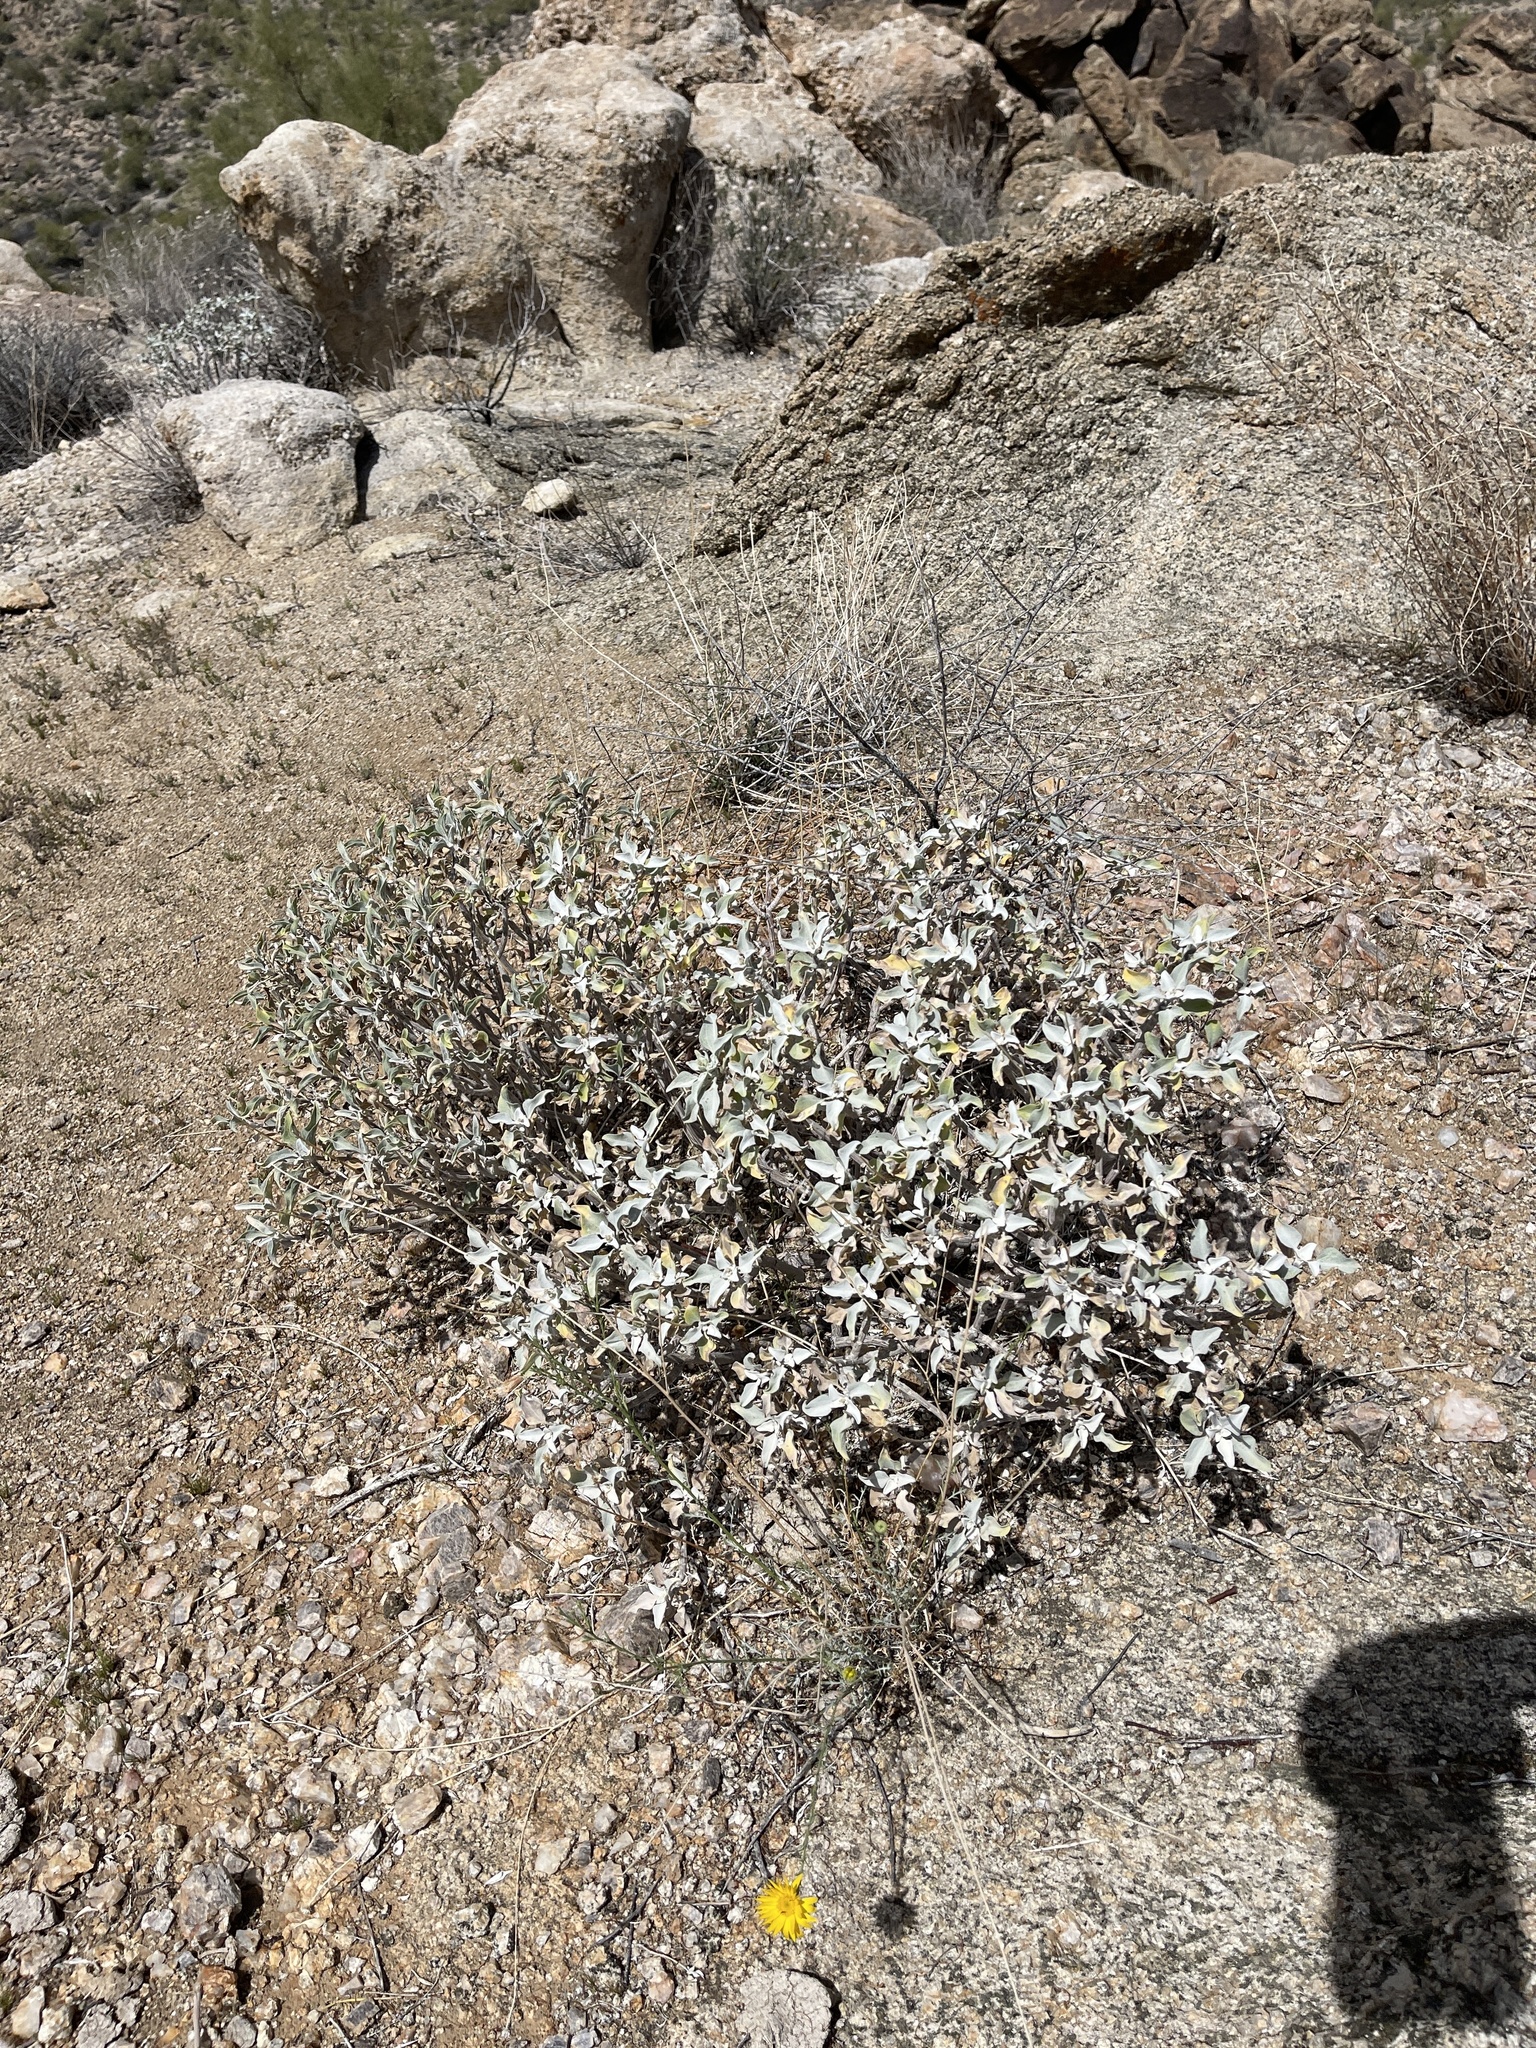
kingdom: Plantae
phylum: Tracheophyta
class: Magnoliopsida
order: Asterales
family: Asteraceae
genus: Encelia
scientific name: Encelia farinosa
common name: Brittlebush
